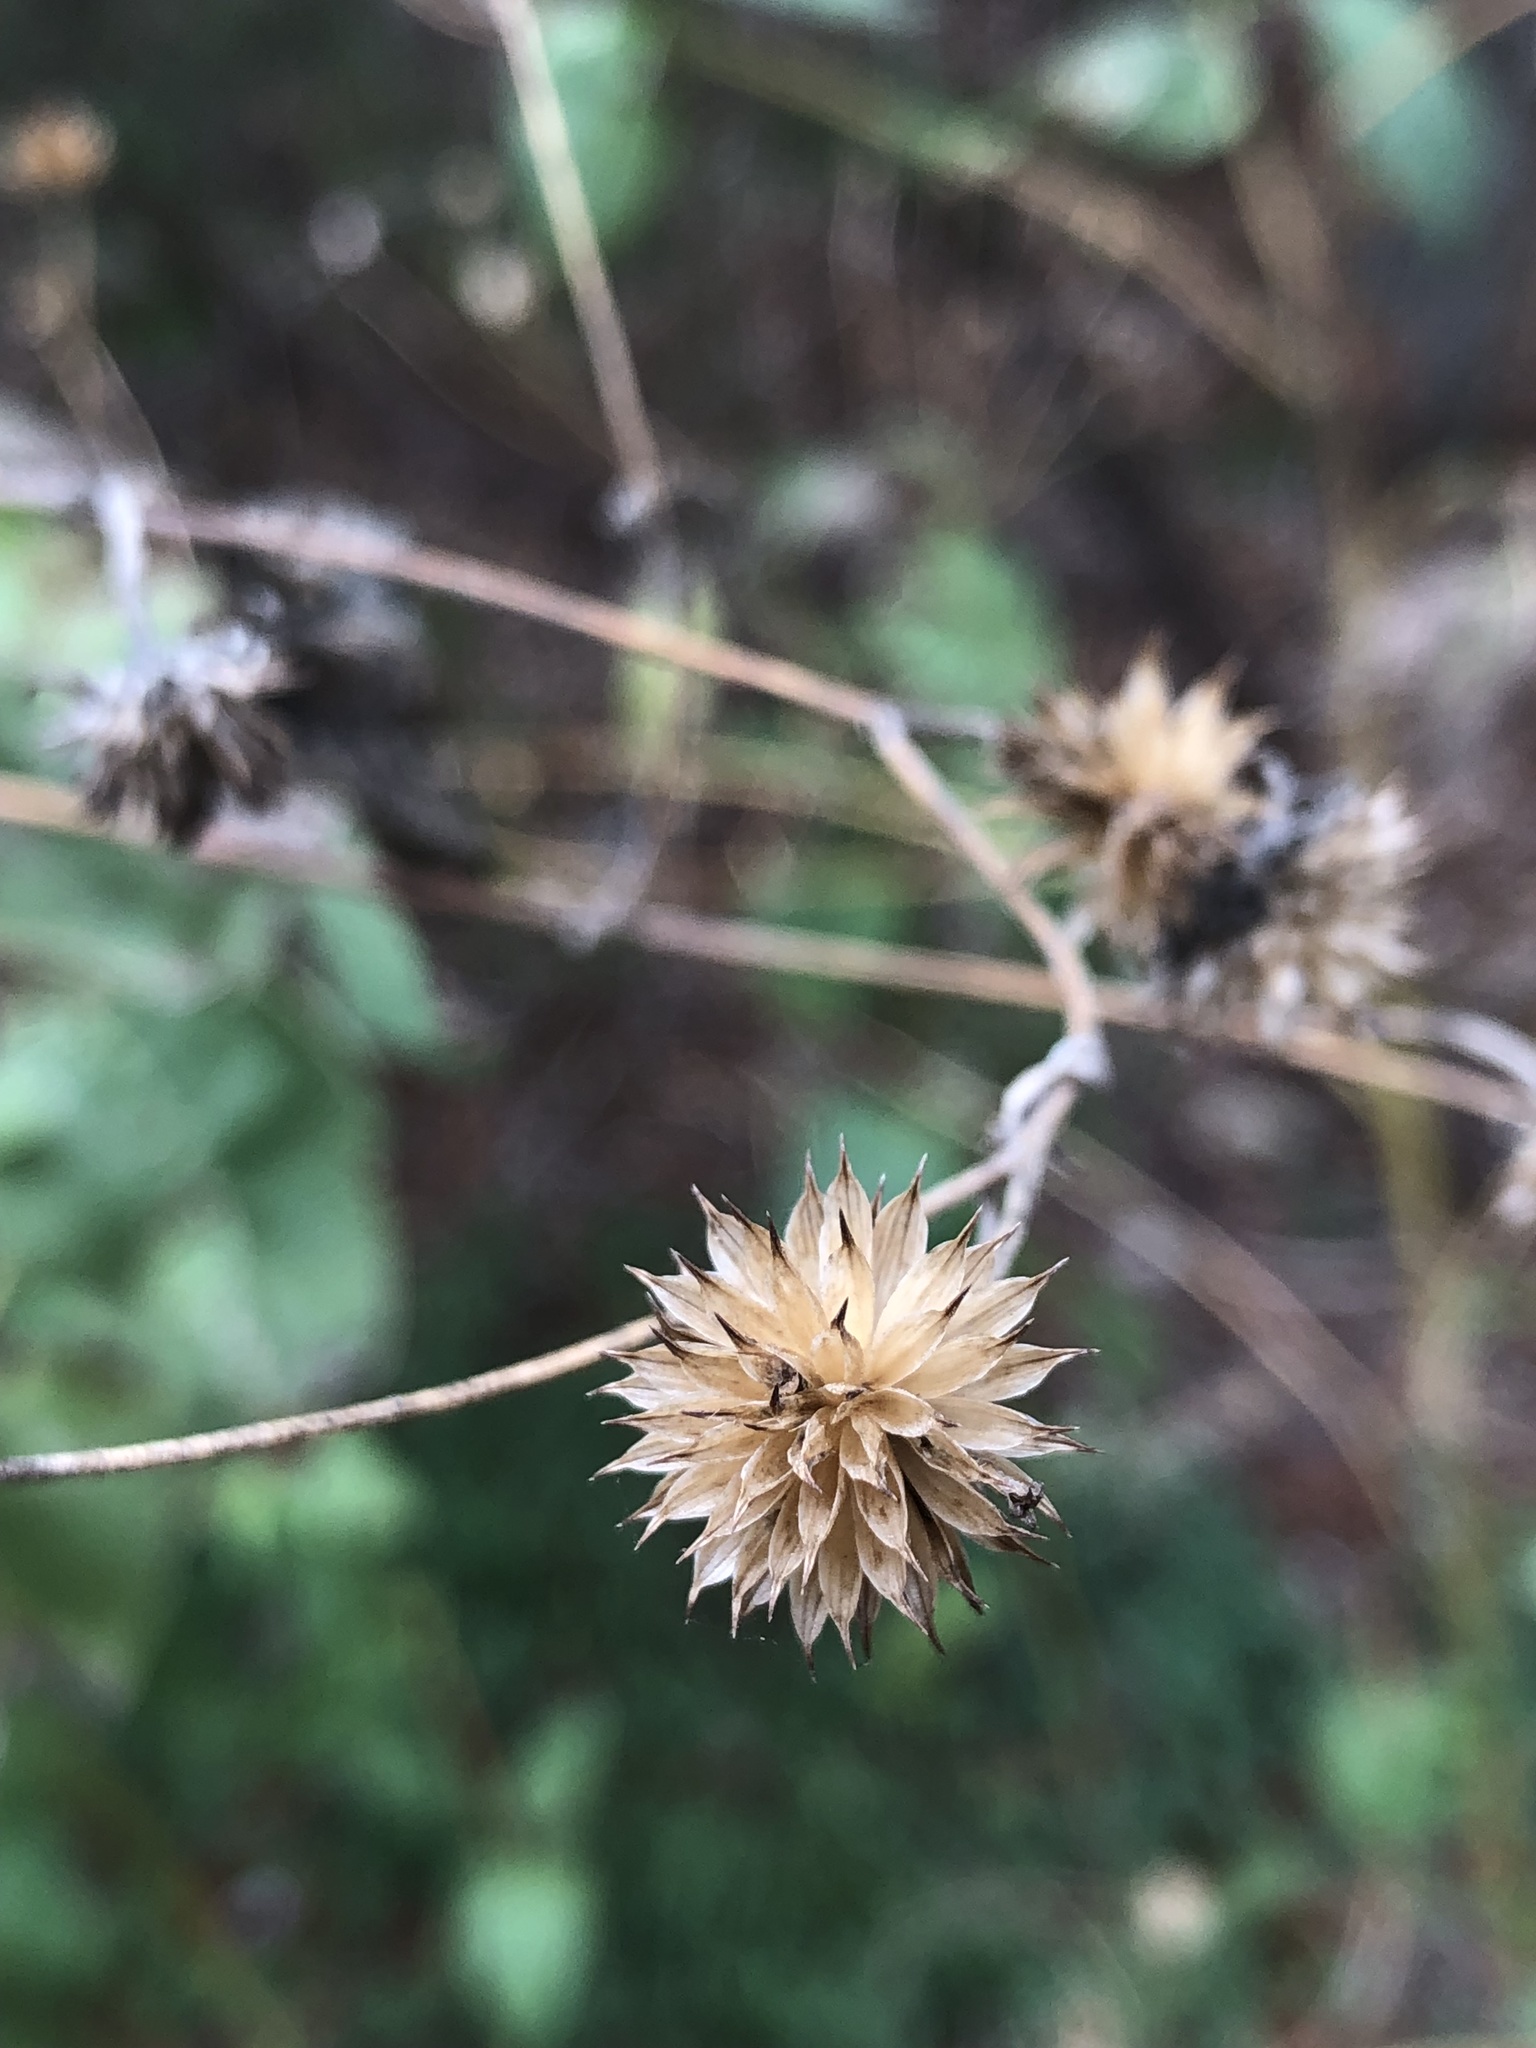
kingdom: Plantae
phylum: Tracheophyta
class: Magnoliopsida
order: Asterales
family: Asteraceae
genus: Viguiera
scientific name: Viguiera dentata
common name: Toothleaf
